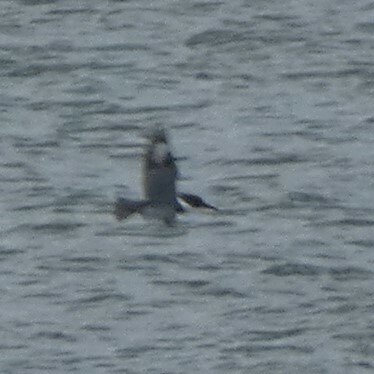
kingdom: Animalia
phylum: Chordata
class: Aves
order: Coraciiformes
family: Alcedinidae
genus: Megaceryle
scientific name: Megaceryle alcyon
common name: Belted kingfisher
